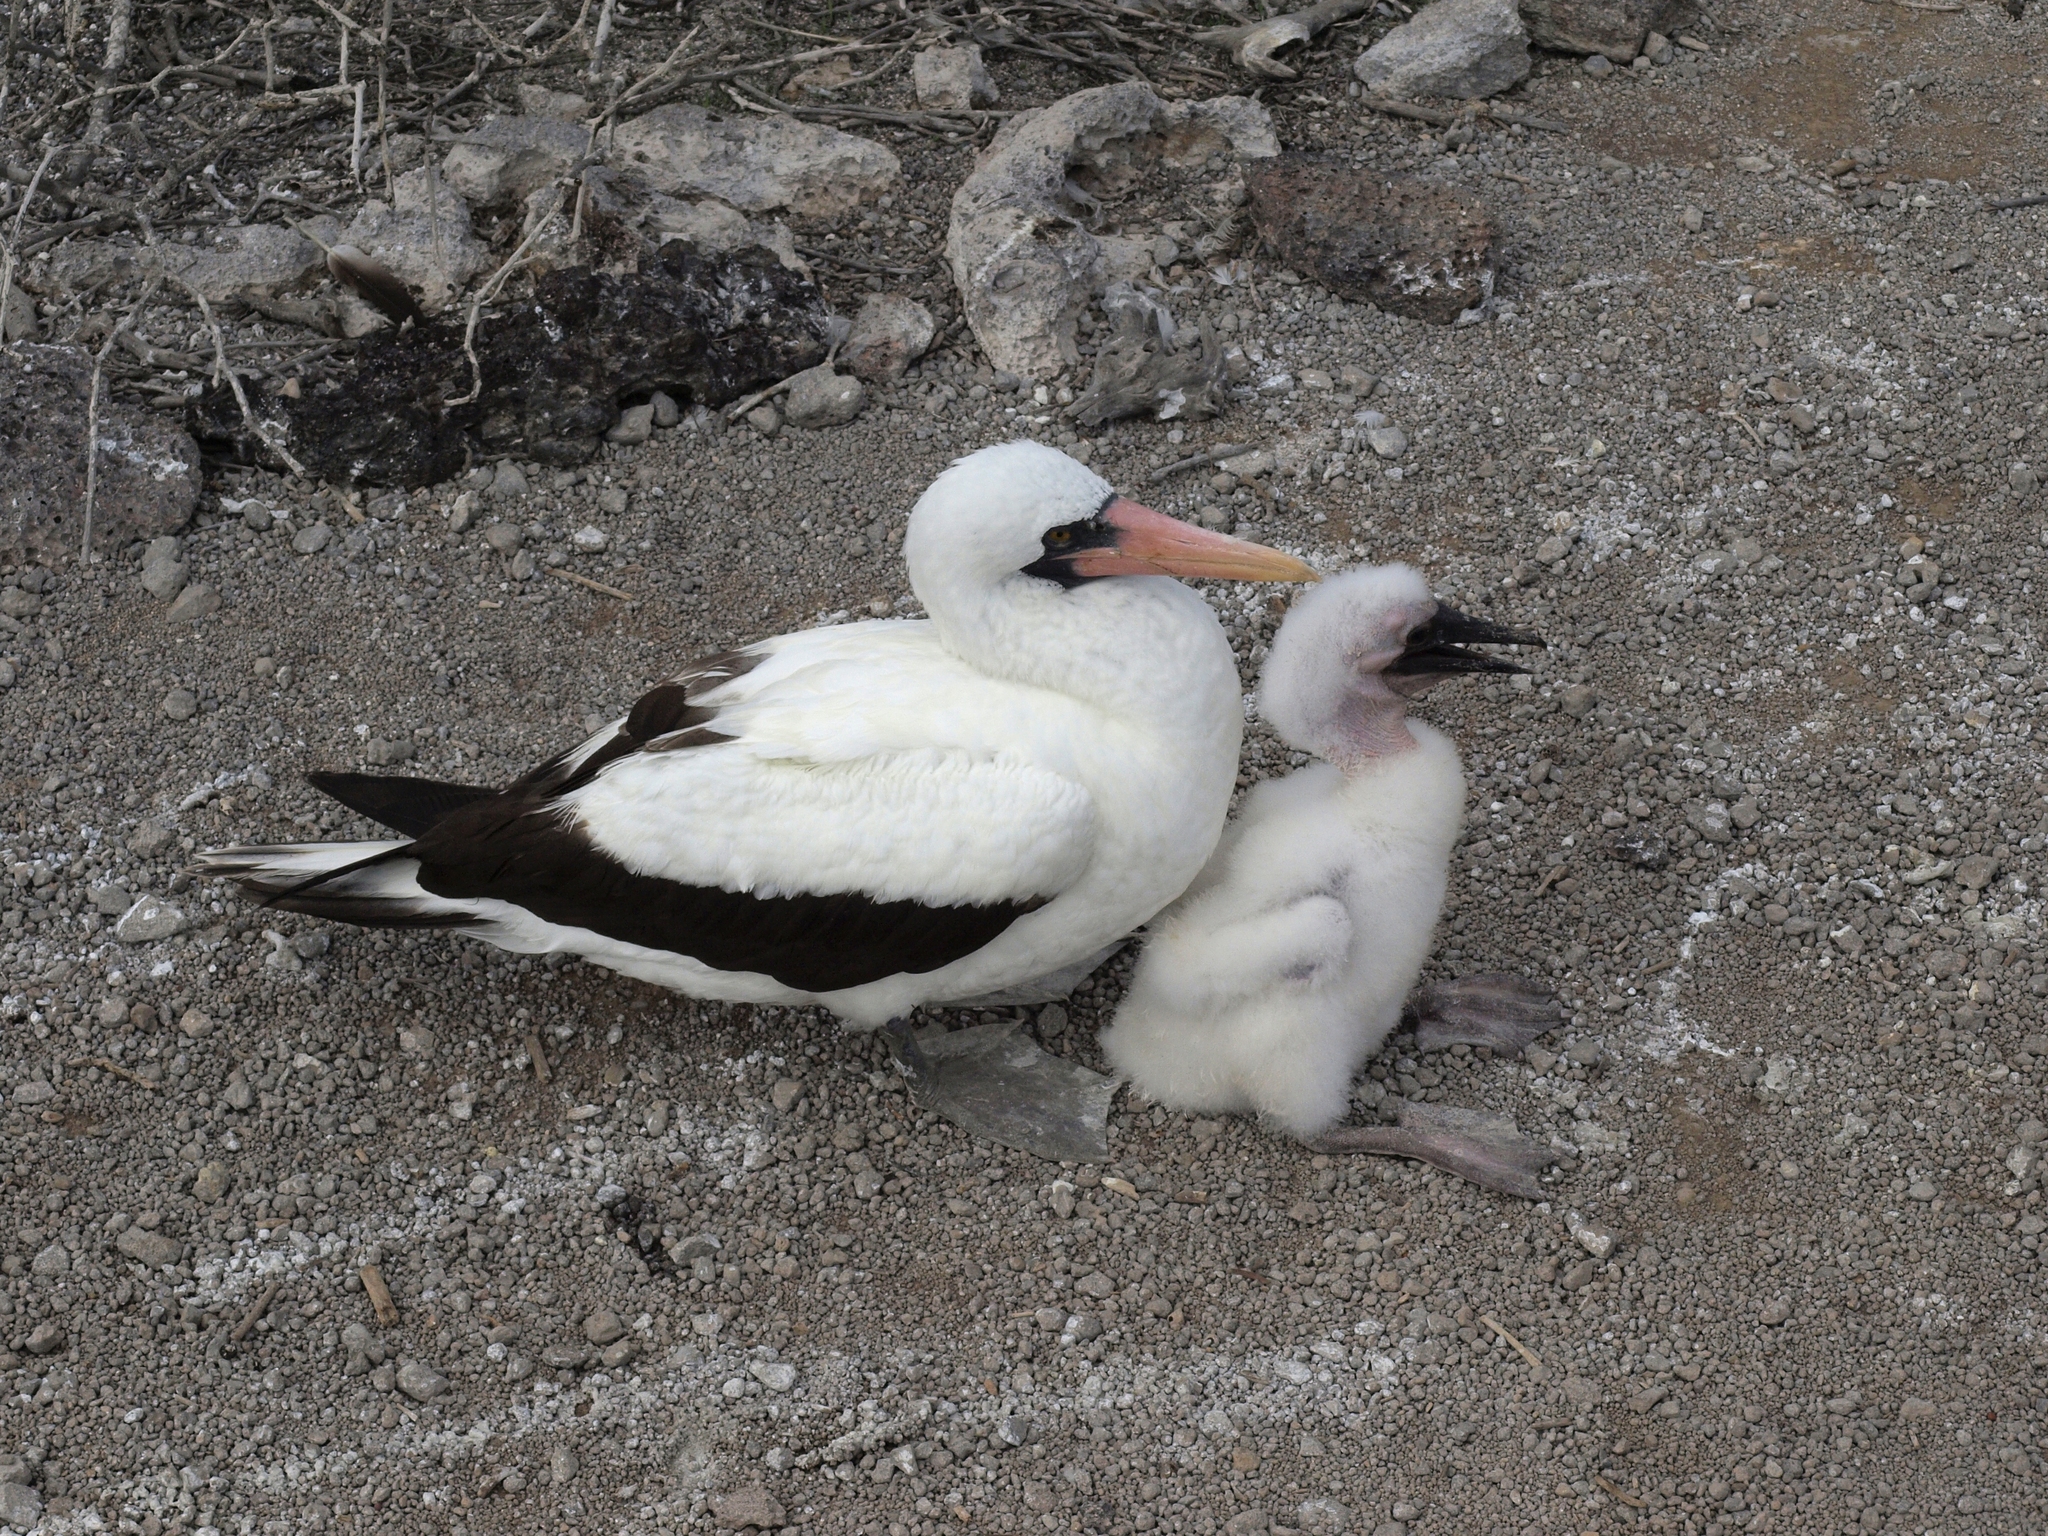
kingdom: Animalia
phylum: Chordata
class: Aves
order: Suliformes
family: Sulidae
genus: Sula
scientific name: Sula granti
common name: Nazca booby
